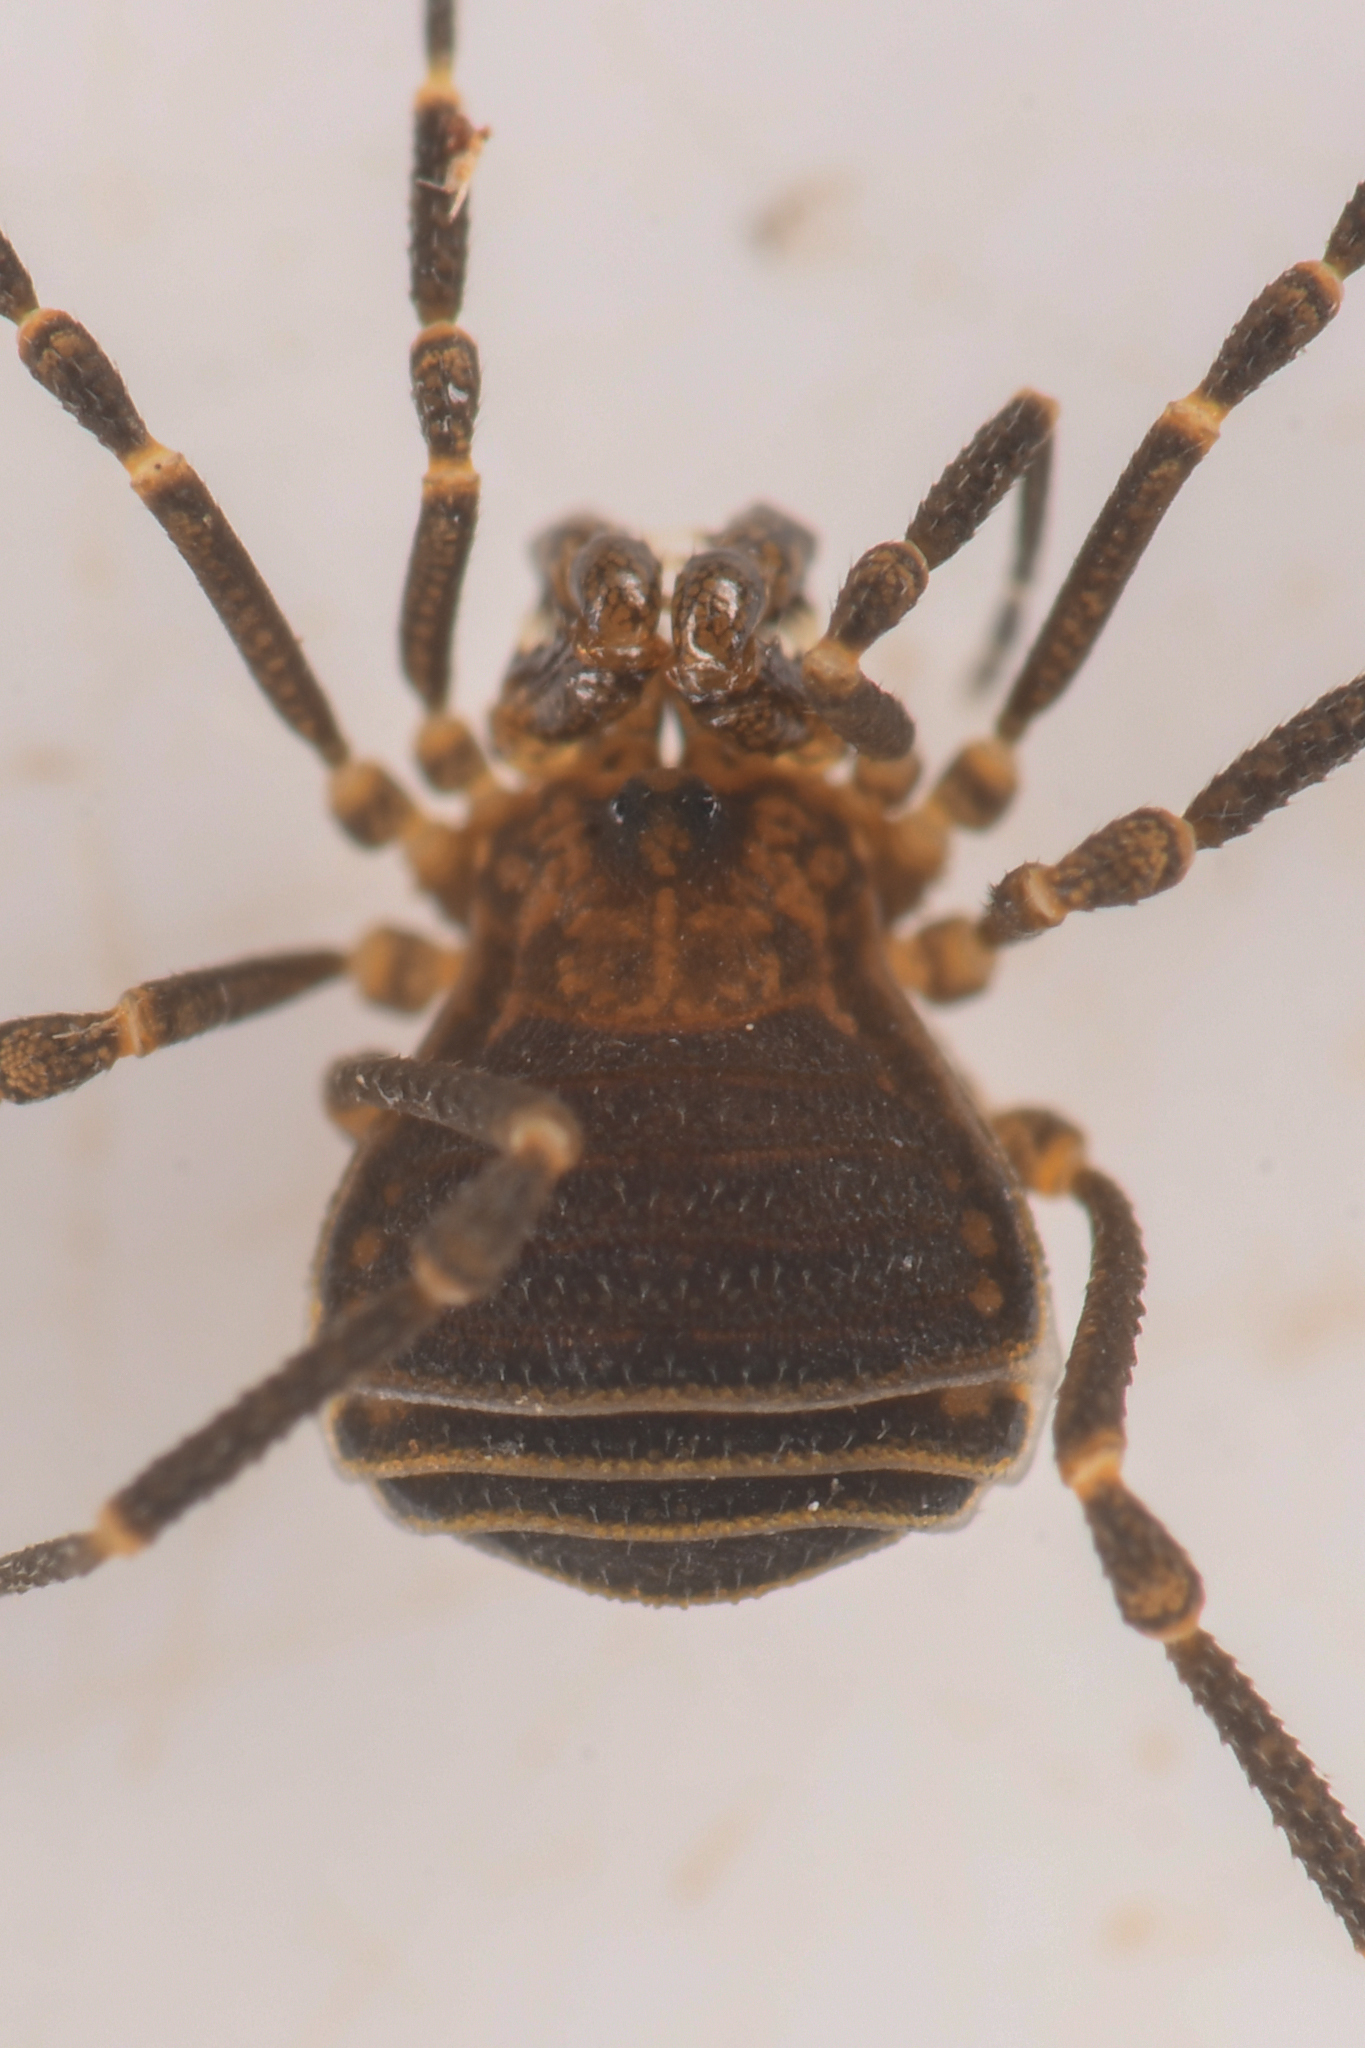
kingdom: Animalia
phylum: Arthropoda
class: Arachnida
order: Opiliones
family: Paranonychidae
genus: Metanonychus
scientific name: Metanonychus nigricans
